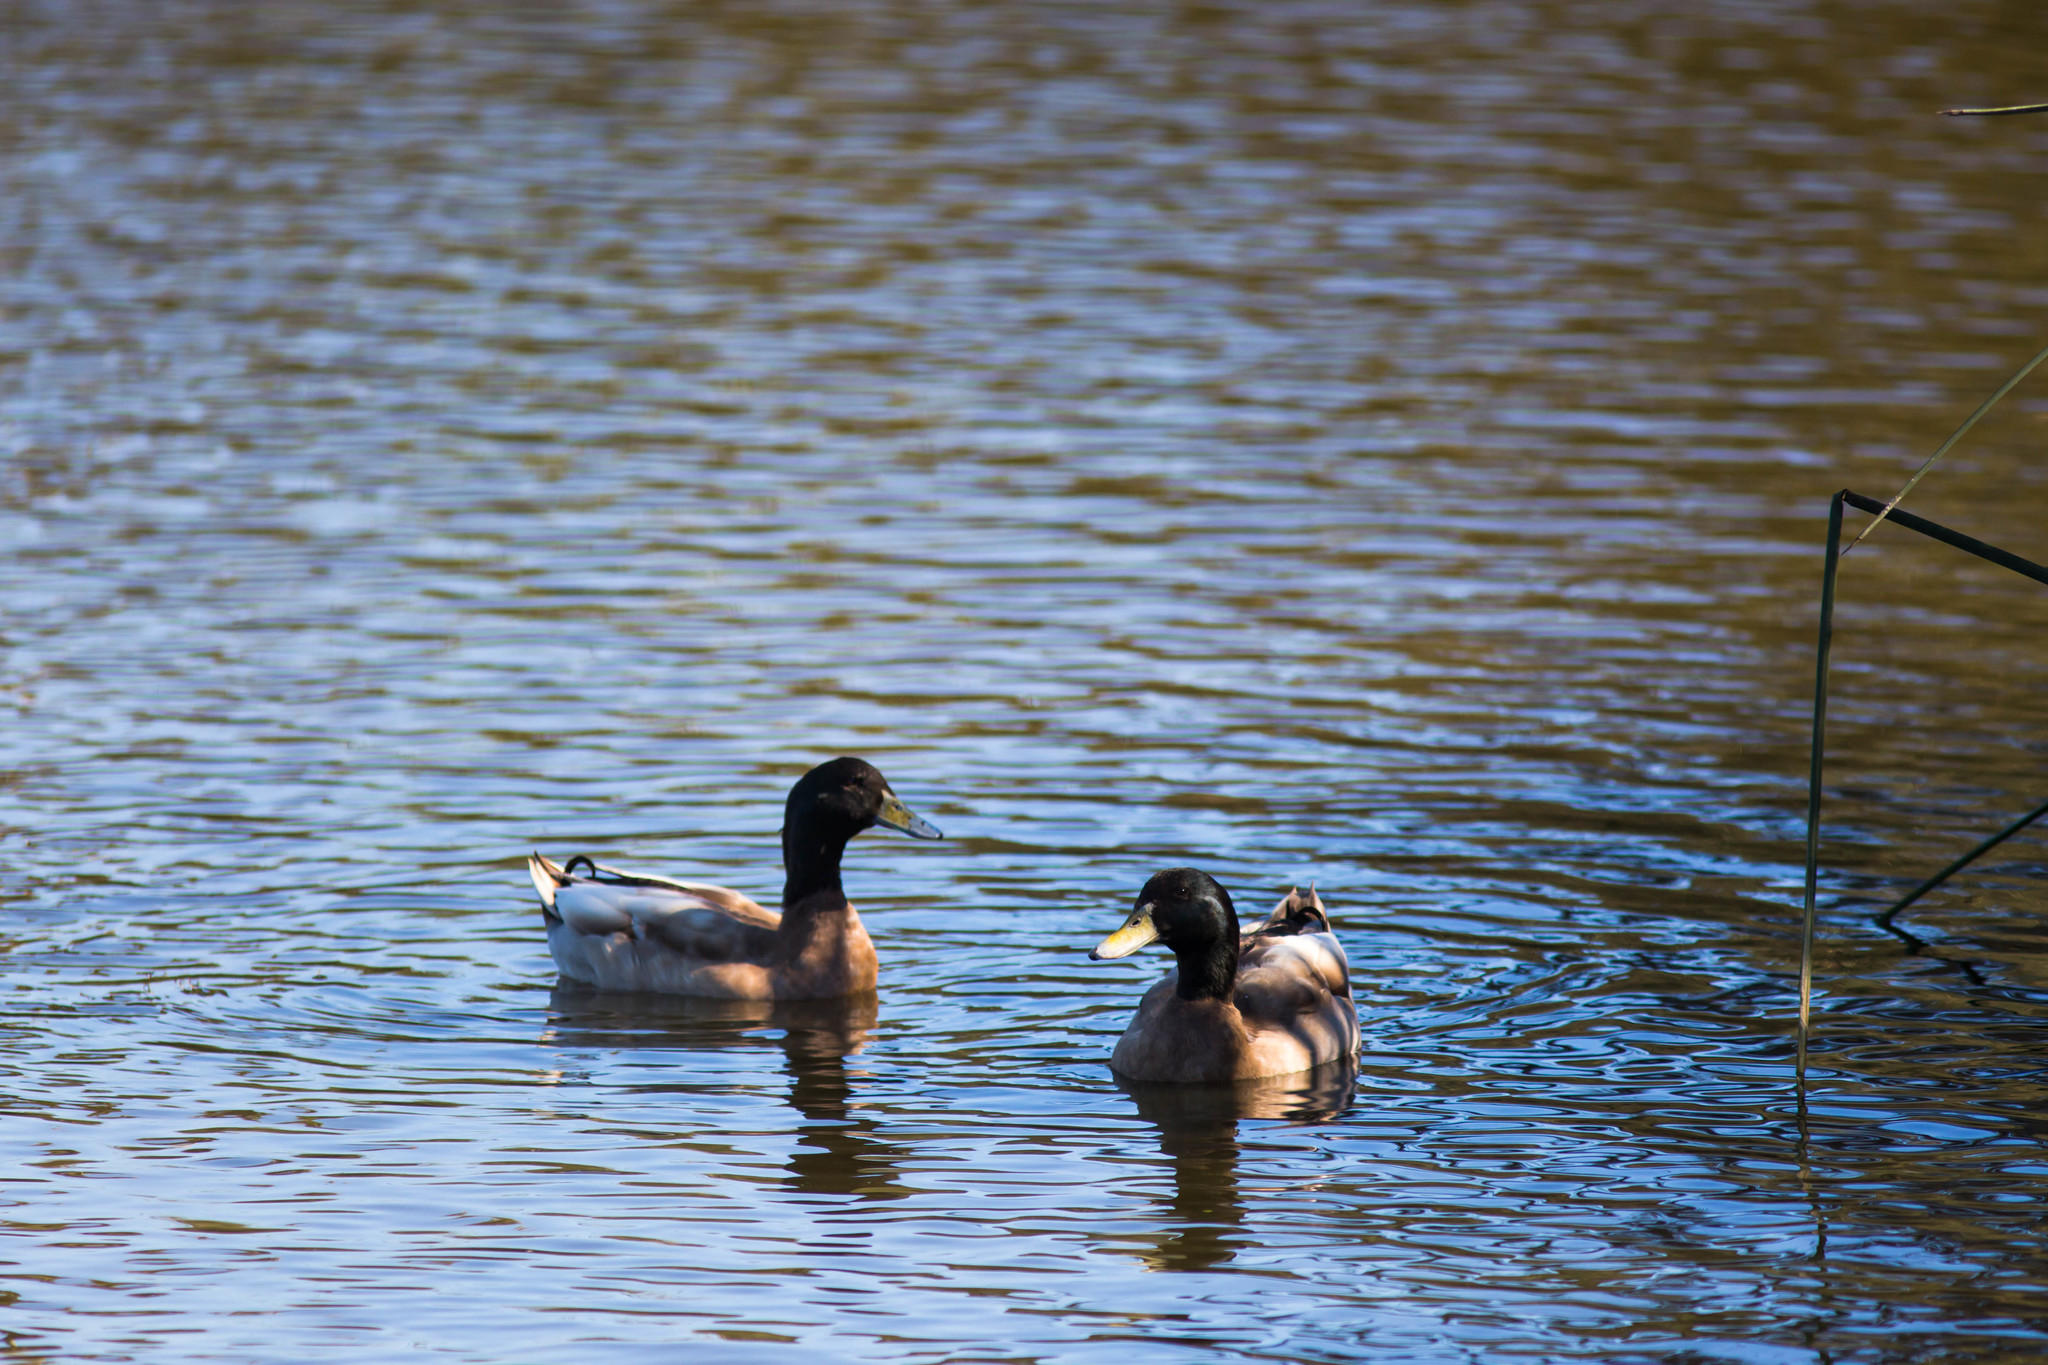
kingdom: Animalia
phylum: Chordata
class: Aves
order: Anseriformes
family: Anatidae
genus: Anas
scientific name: Anas platyrhynchos
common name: Mallard
